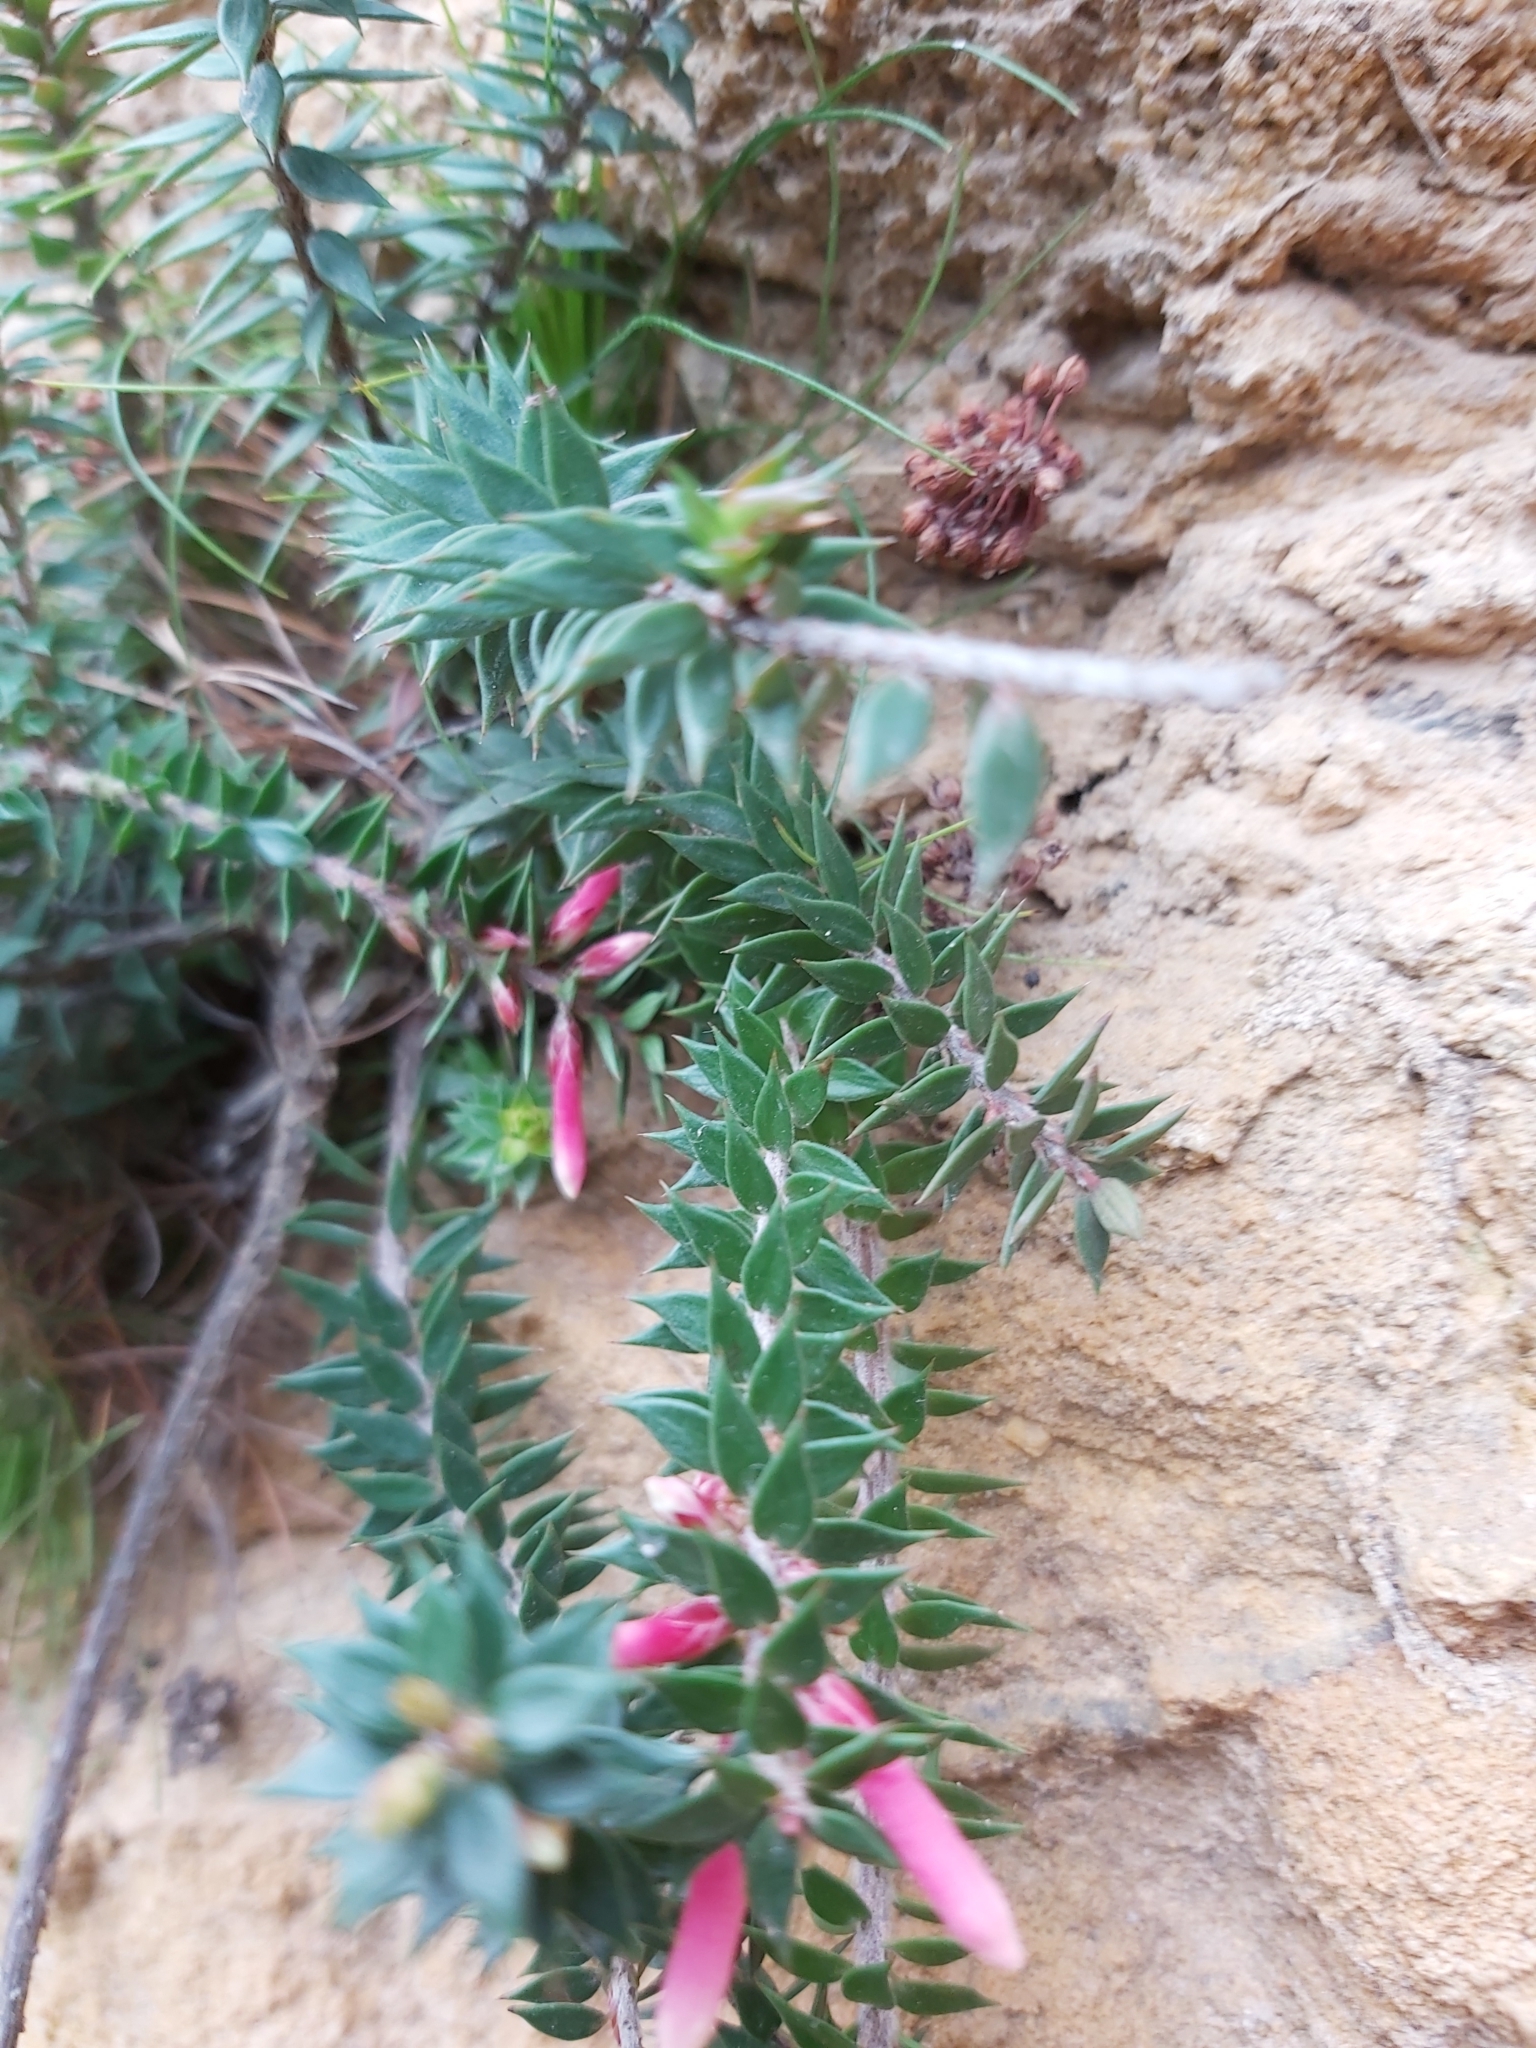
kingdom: Plantae
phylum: Tracheophyta
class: Magnoliopsida
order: Ericales
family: Ericaceae
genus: Epacris
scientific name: Epacris reclinata
